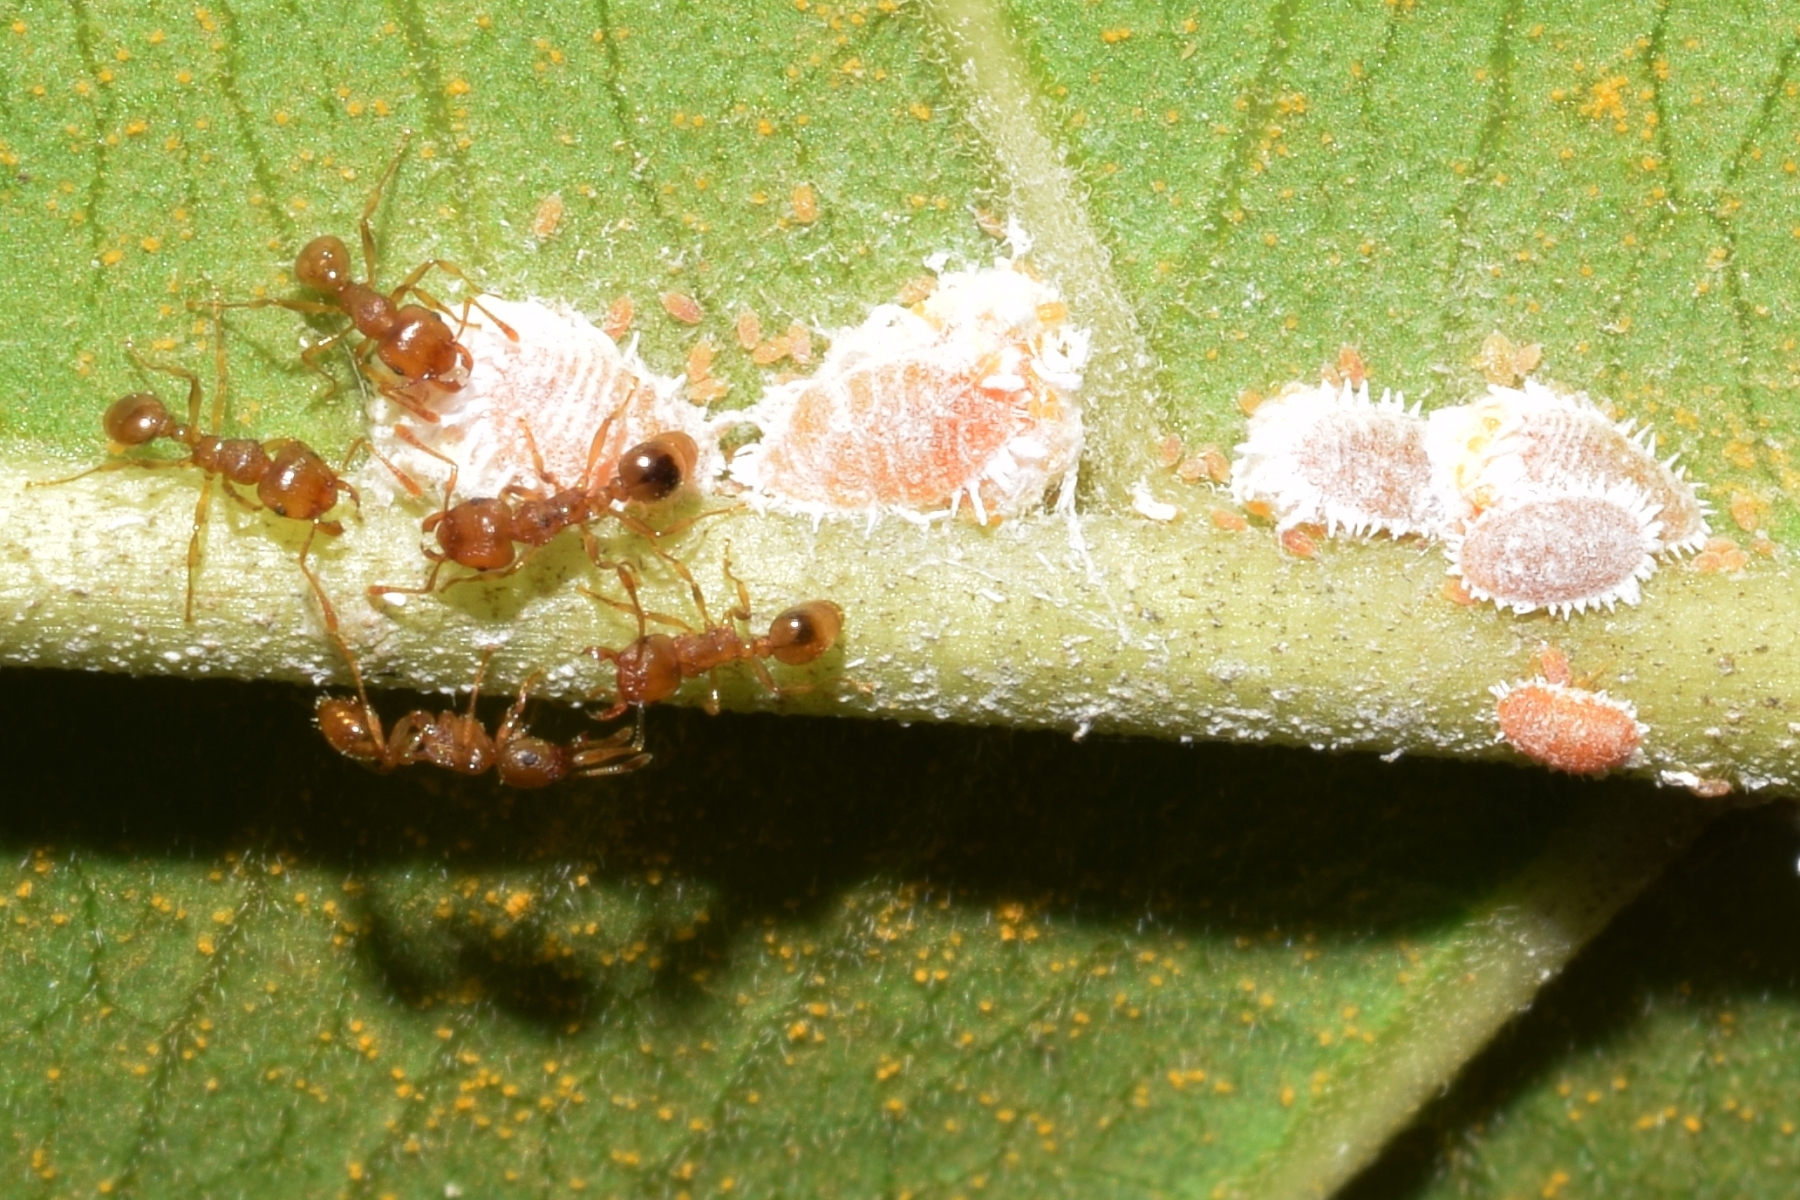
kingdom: Animalia
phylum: Arthropoda
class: Insecta
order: Hymenoptera
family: Formicidae
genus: Tetramorium
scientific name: Tetramorium wroughtonii
